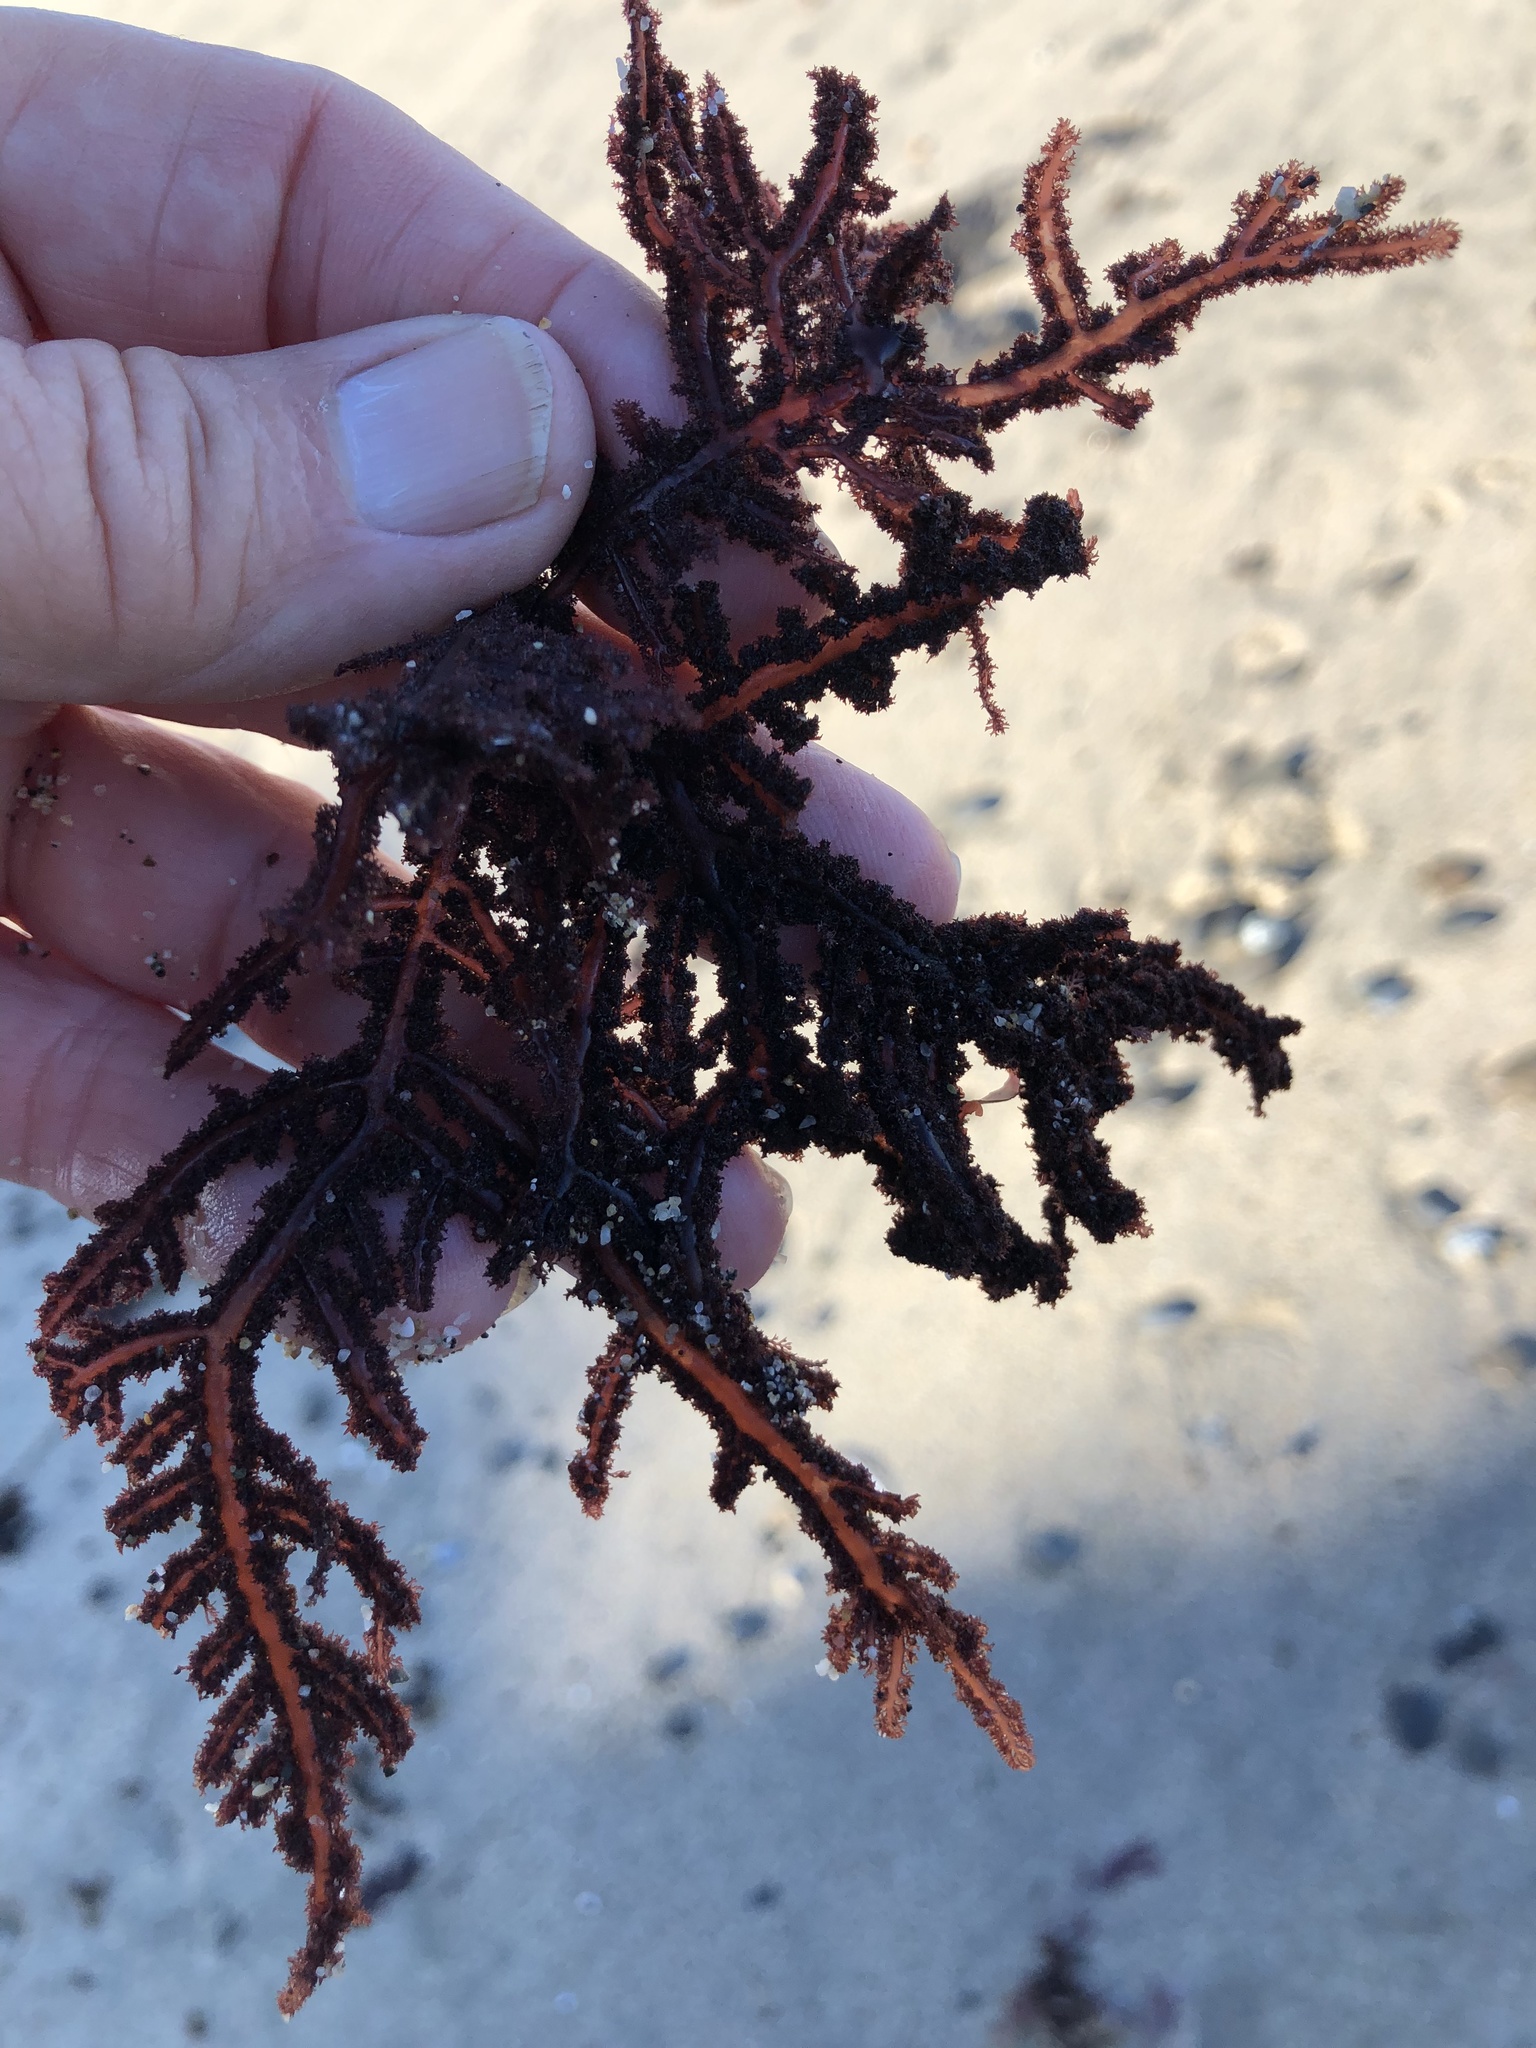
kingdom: Plantae
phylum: Rhodophyta
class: Florideophyceae
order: Ceramiales
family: Wrangeliaceae
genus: Neoptilota
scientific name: Neoptilota densa
